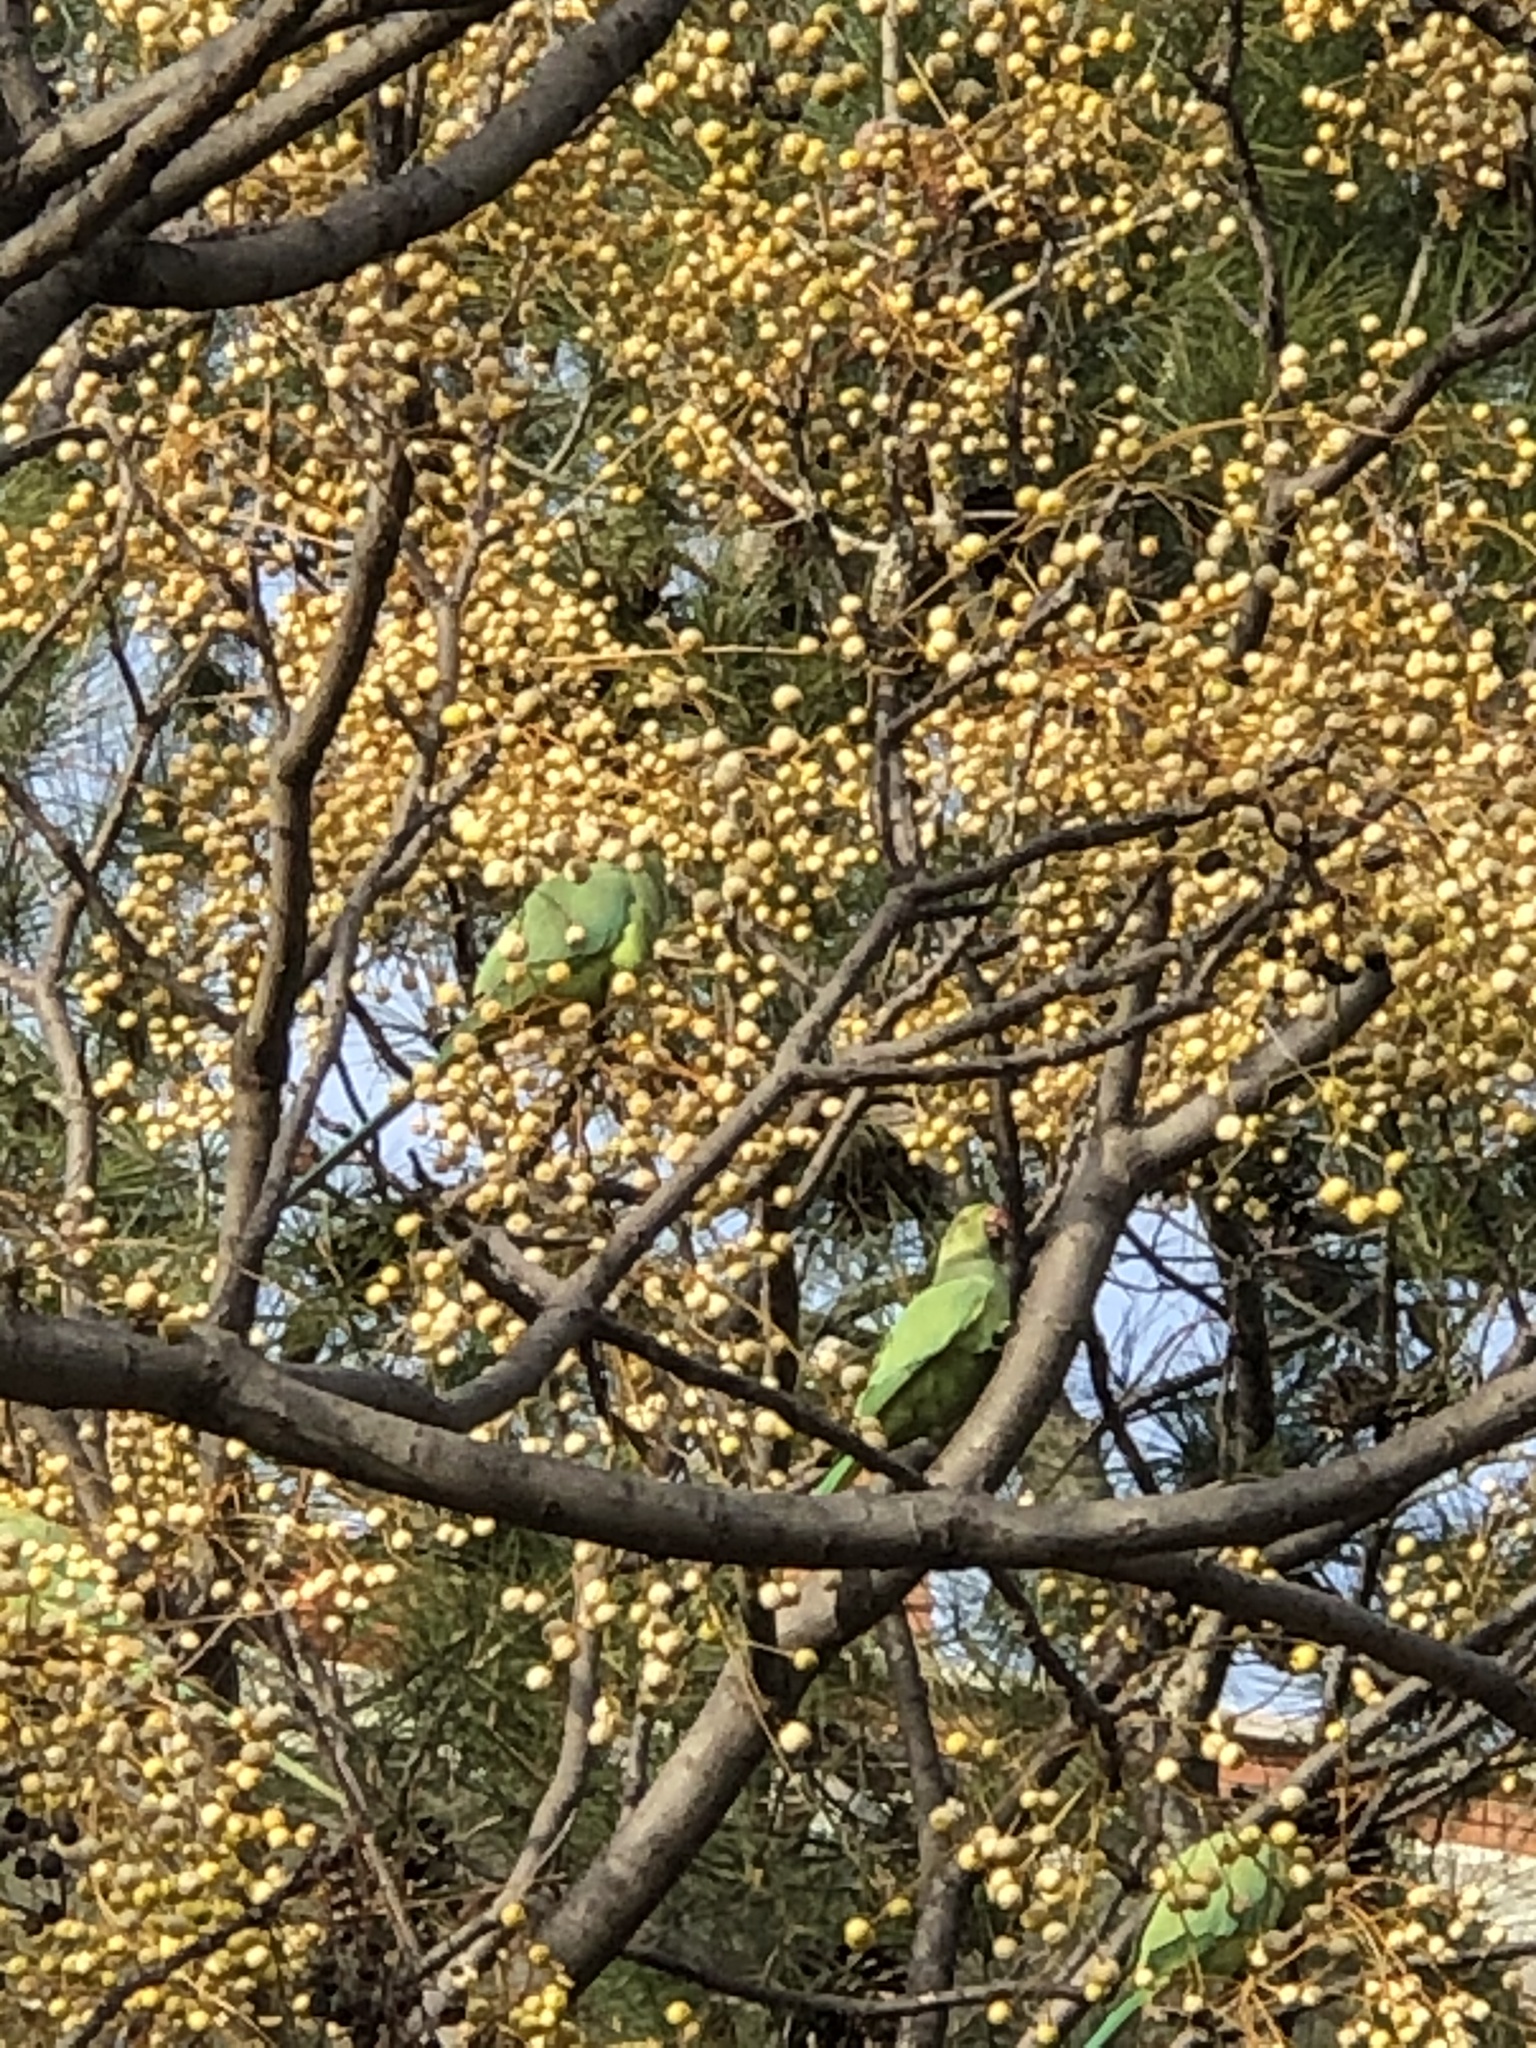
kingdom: Animalia
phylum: Chordata
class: Aves
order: Psittaciformes
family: Psittacidae
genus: Psittacula
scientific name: Psittacula krameri
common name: Rose-ringed parakeet
